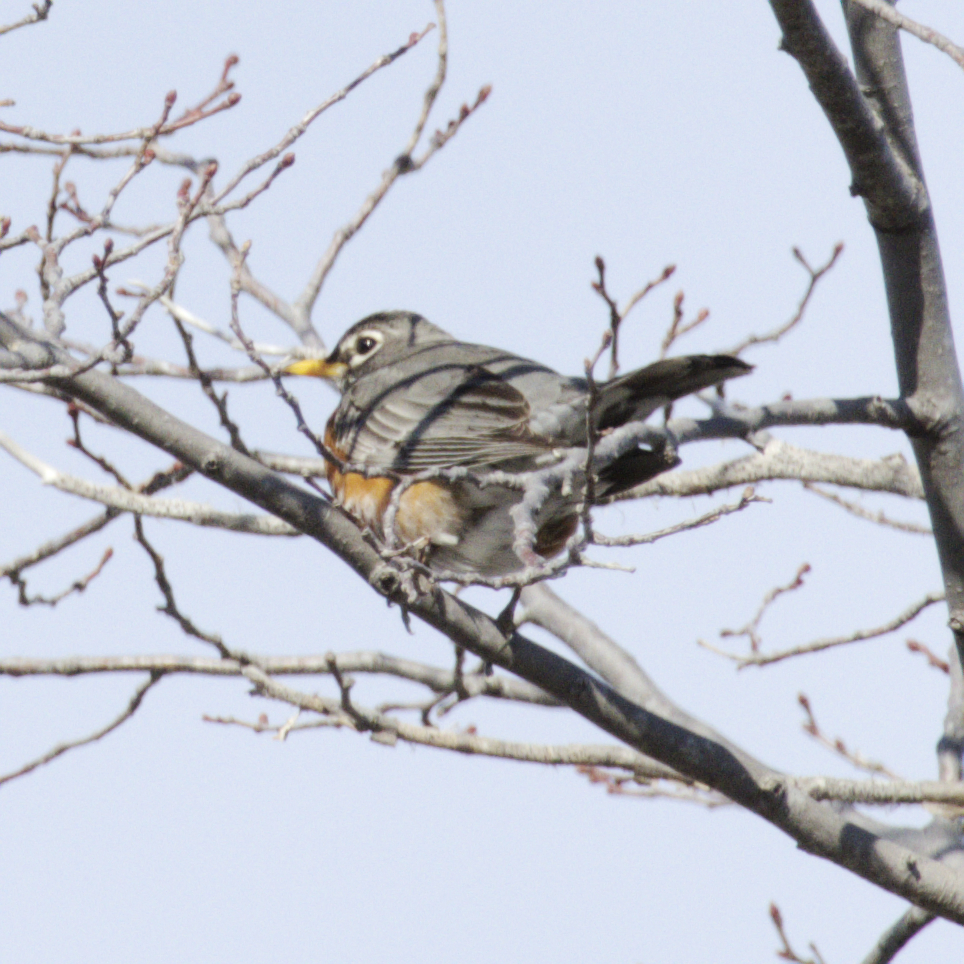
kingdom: Animalia
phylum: Chordata
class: Aves
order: Passeriformes
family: Turdidae
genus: Turdus
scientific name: Turdus migratorius
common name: American robin
